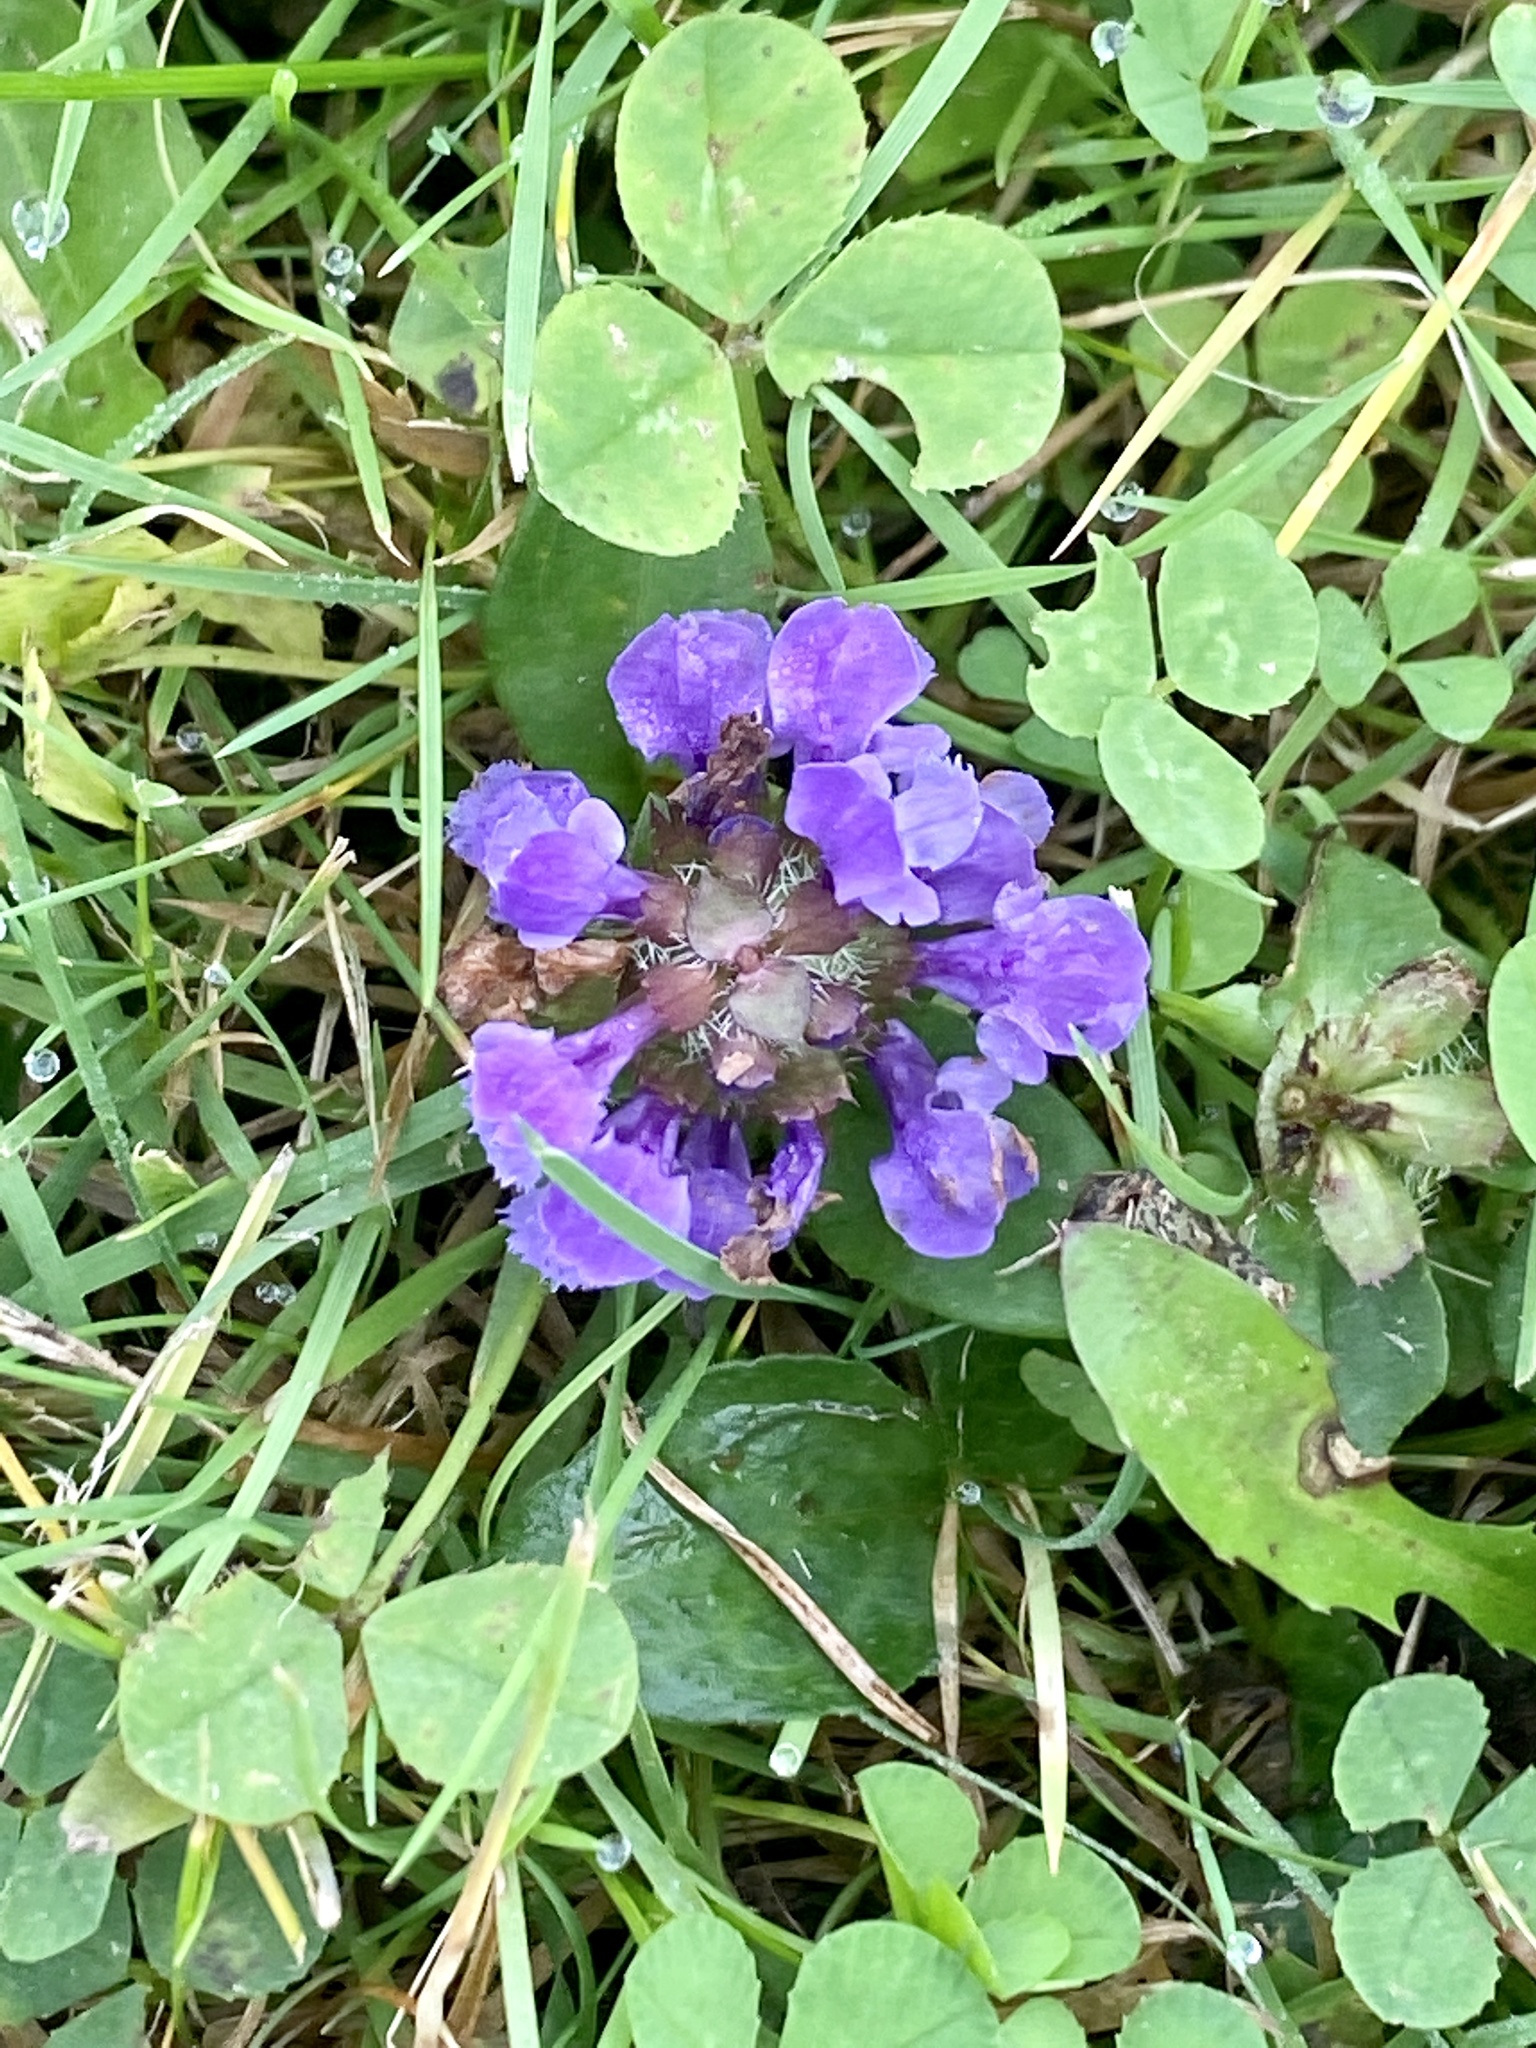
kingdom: Plantae
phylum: Tracheophyta
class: Magnoliopsida
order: Lamiales
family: Lamiaceae
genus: Prunella
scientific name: Prunella vulgaris
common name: Heal-all
